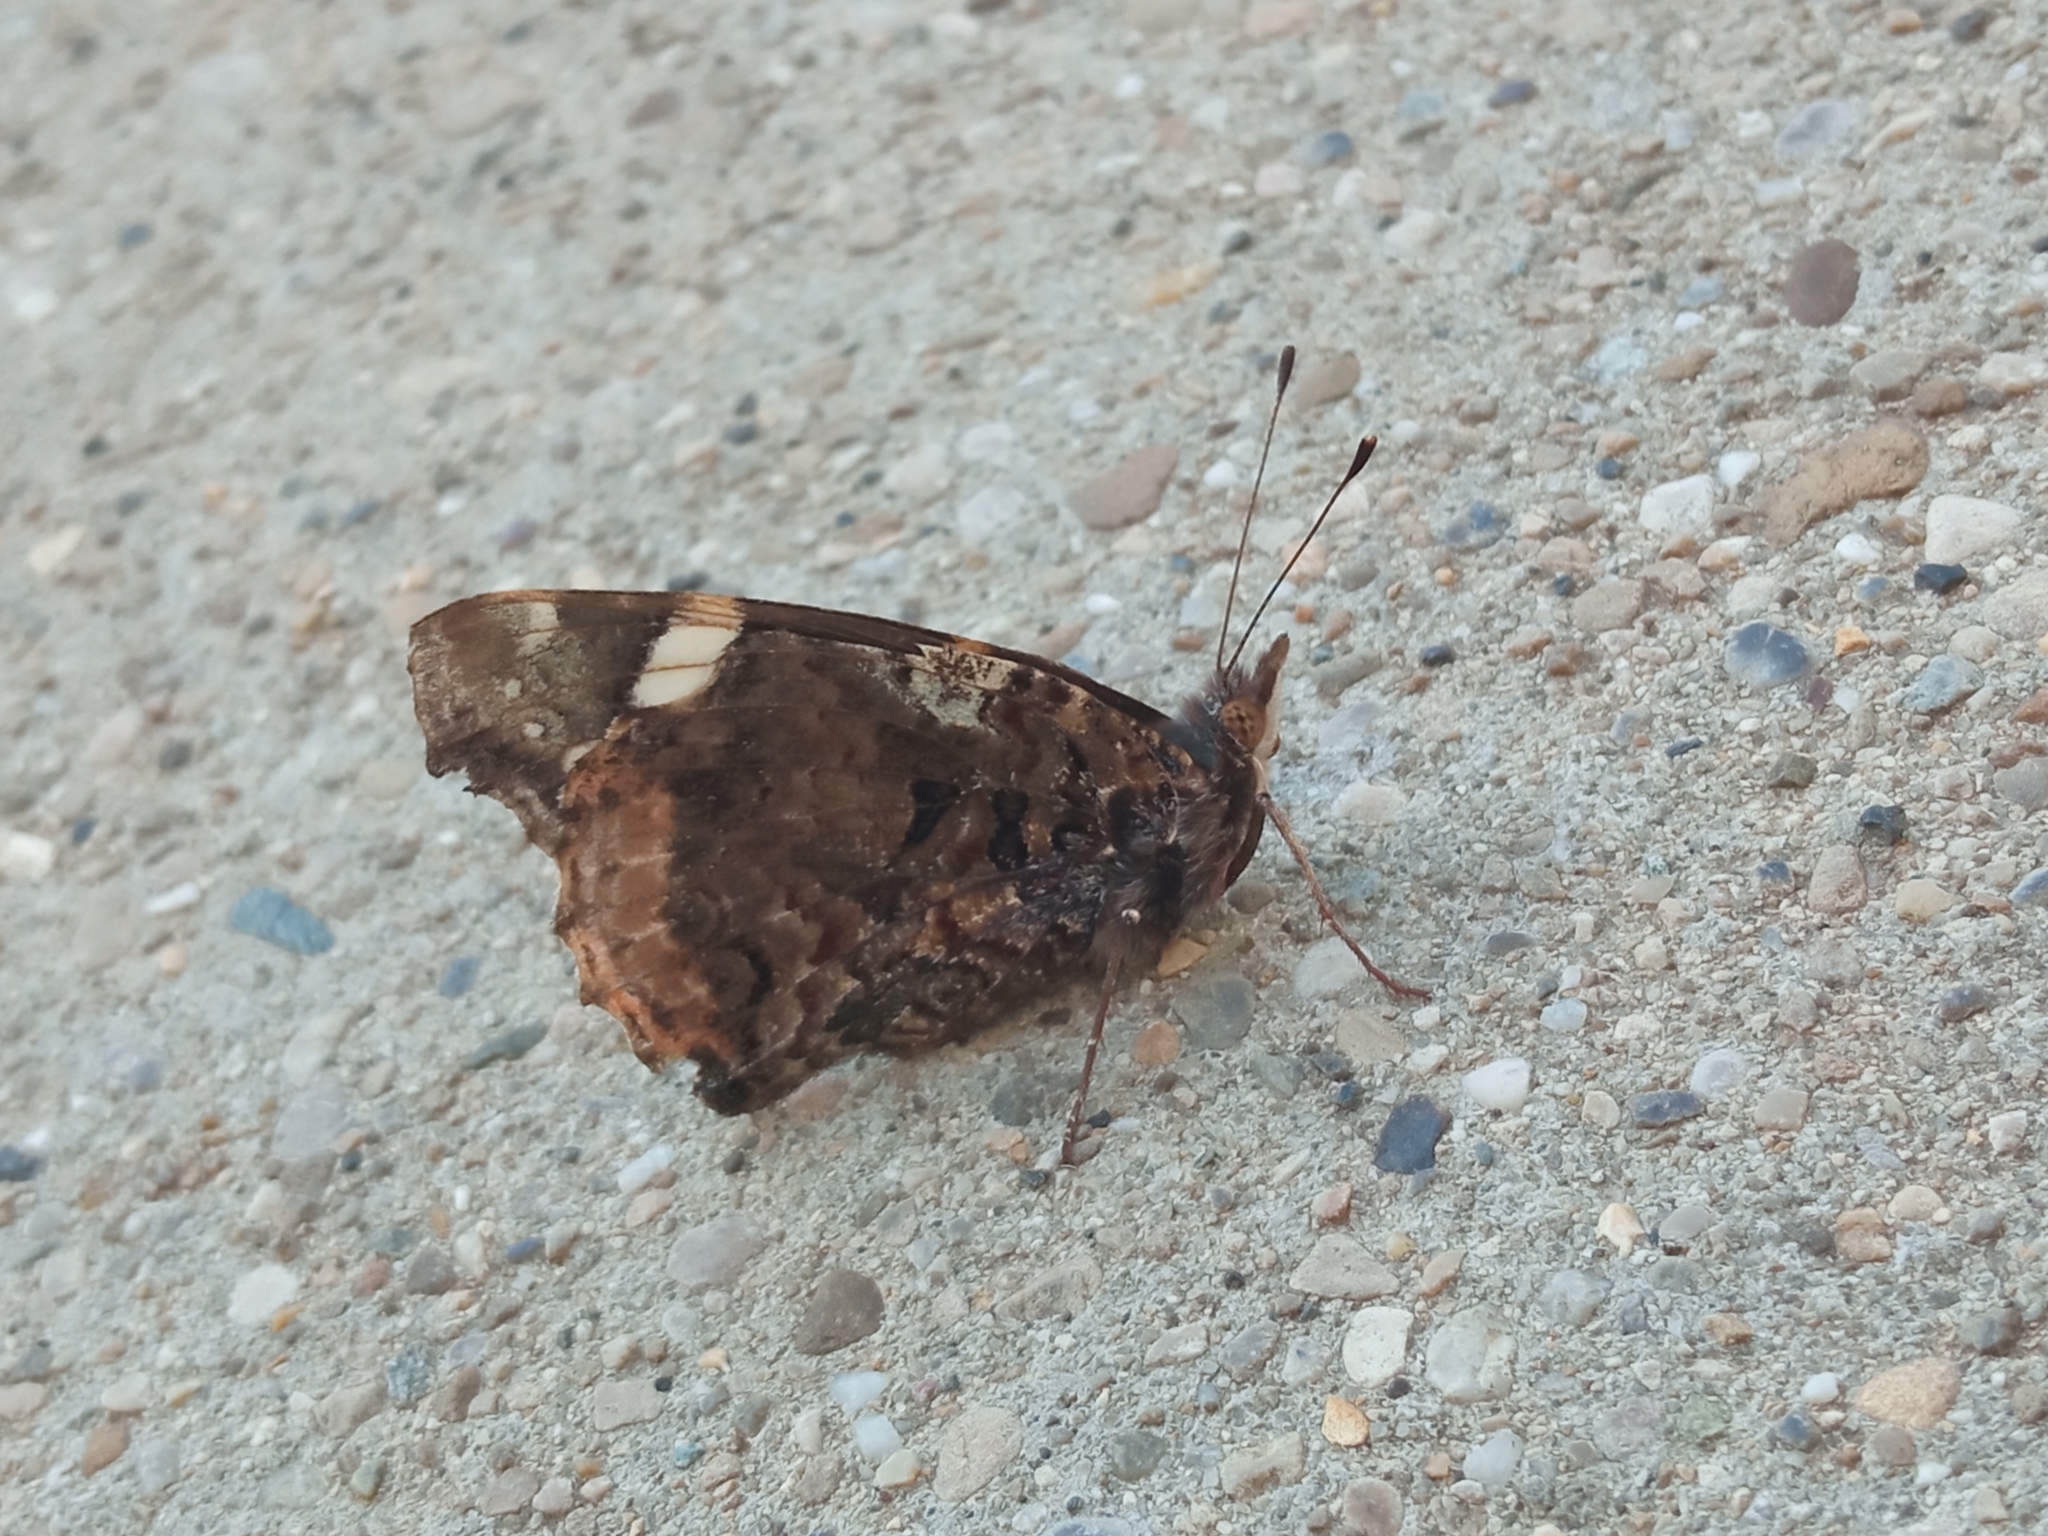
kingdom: Animalia
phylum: Arthropoda
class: Insecta
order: Lepidoptera
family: Nymphalidae
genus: Vanessa
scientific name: Vanessa atalanta
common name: Red admiral
